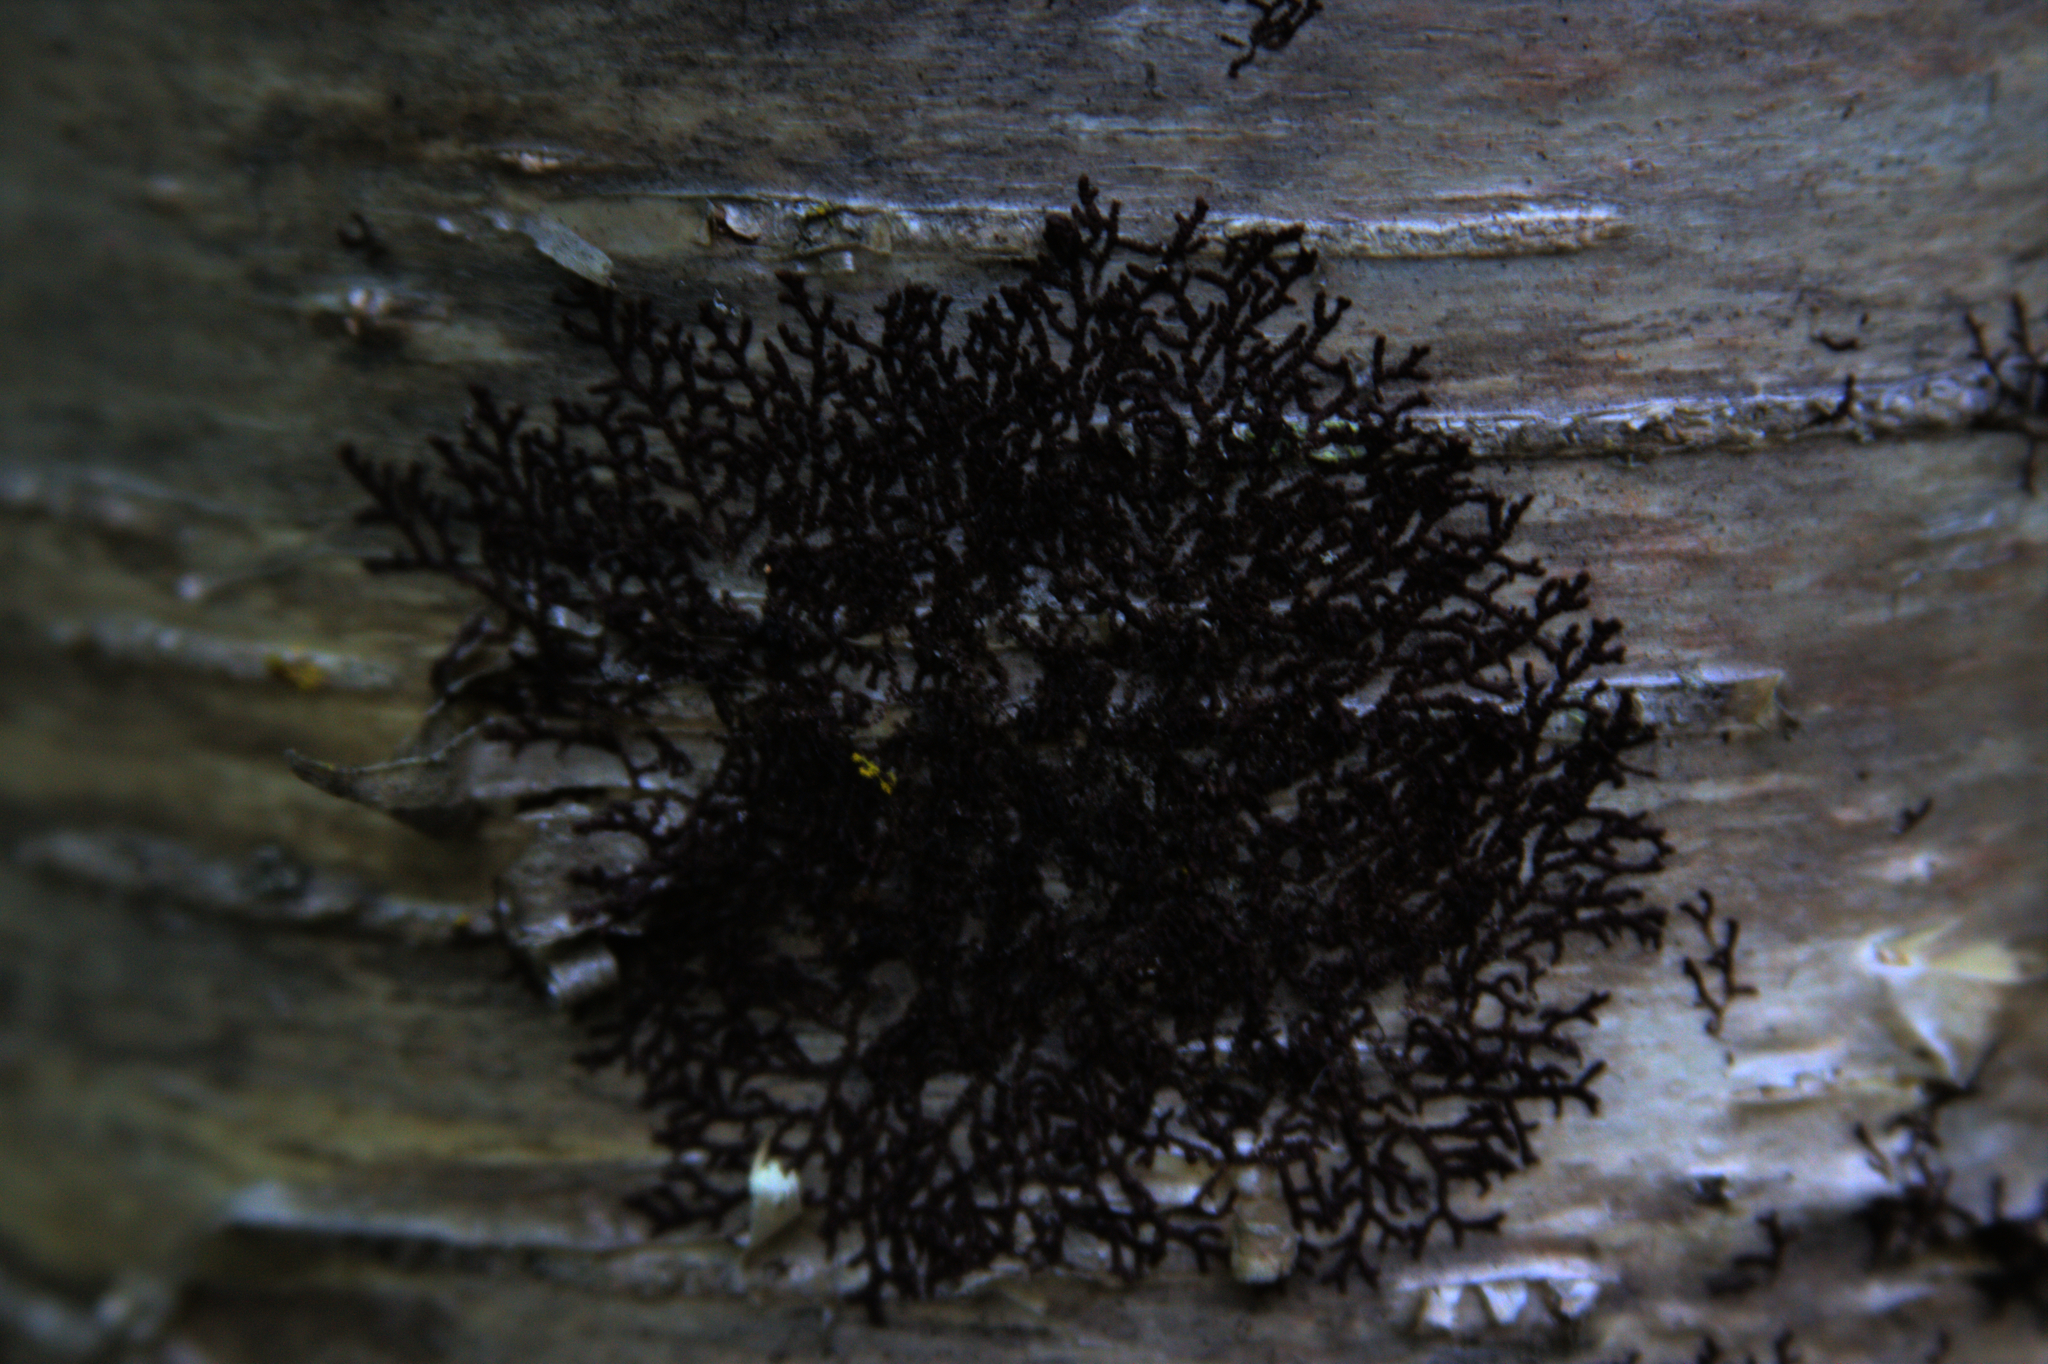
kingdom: Plantae
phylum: Marchantiophyta
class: Jungermanniopsida
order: Porellales
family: Frullaniaceae
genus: Frullania
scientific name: Frullania eboracensis
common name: New york scalewort
